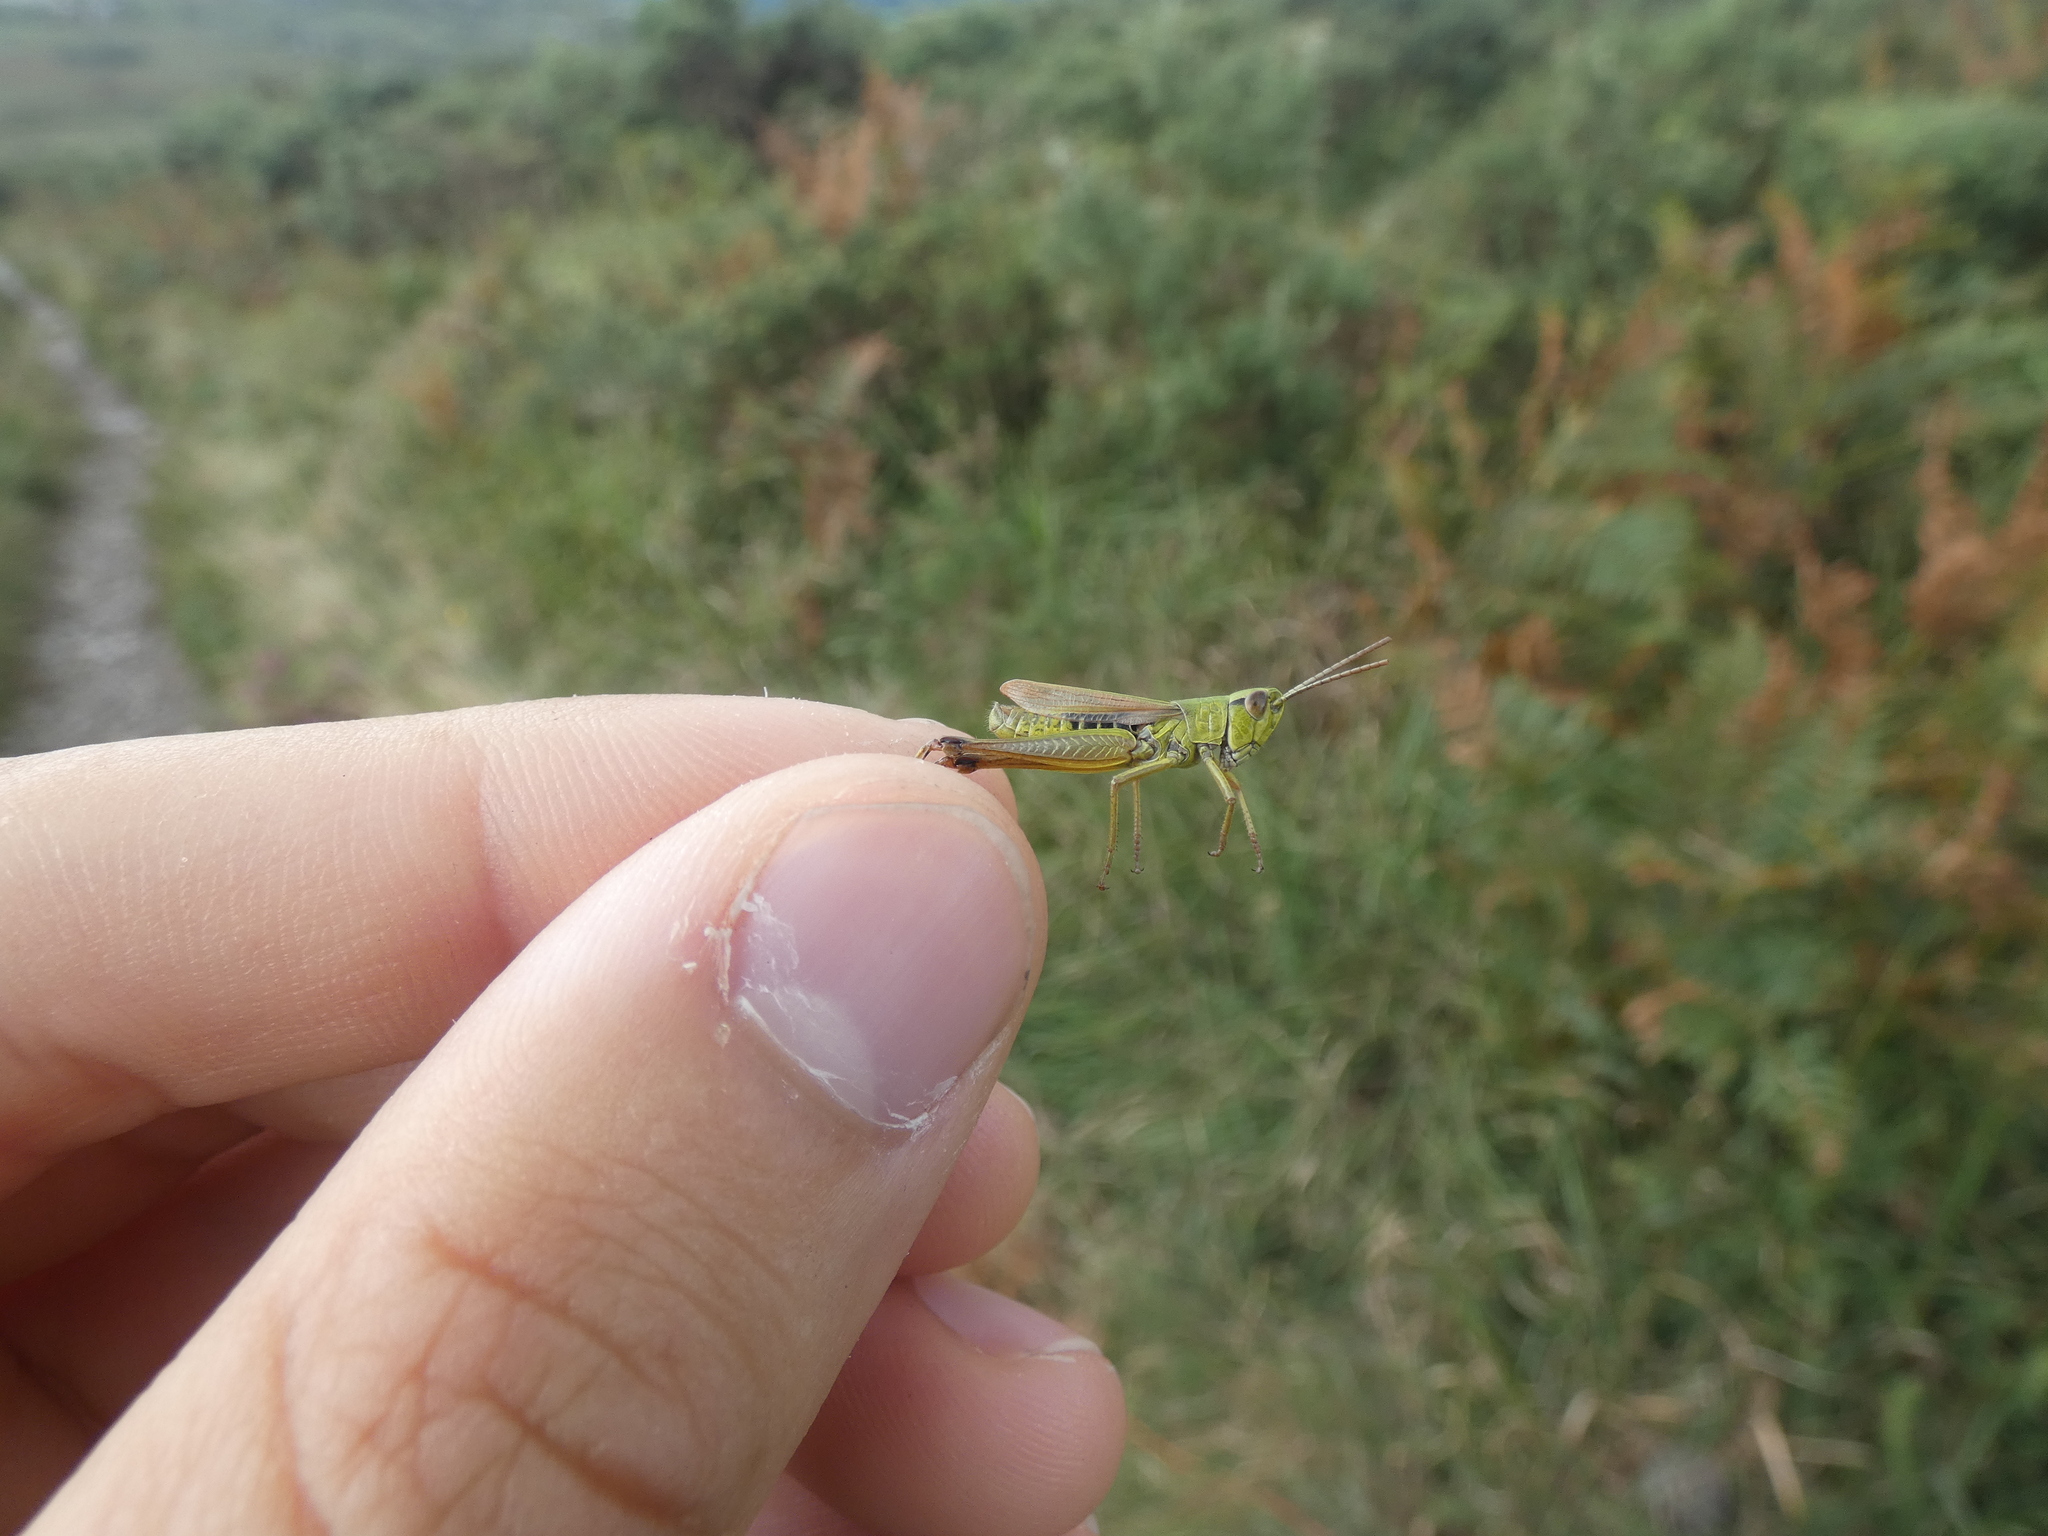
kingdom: Animalia
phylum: Arthropoda
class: Insecta
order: Orthoptera
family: Acrididae
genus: Pseudochorthippus
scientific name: Pseudochorthippus parallelus
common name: Meadow grasshopper
